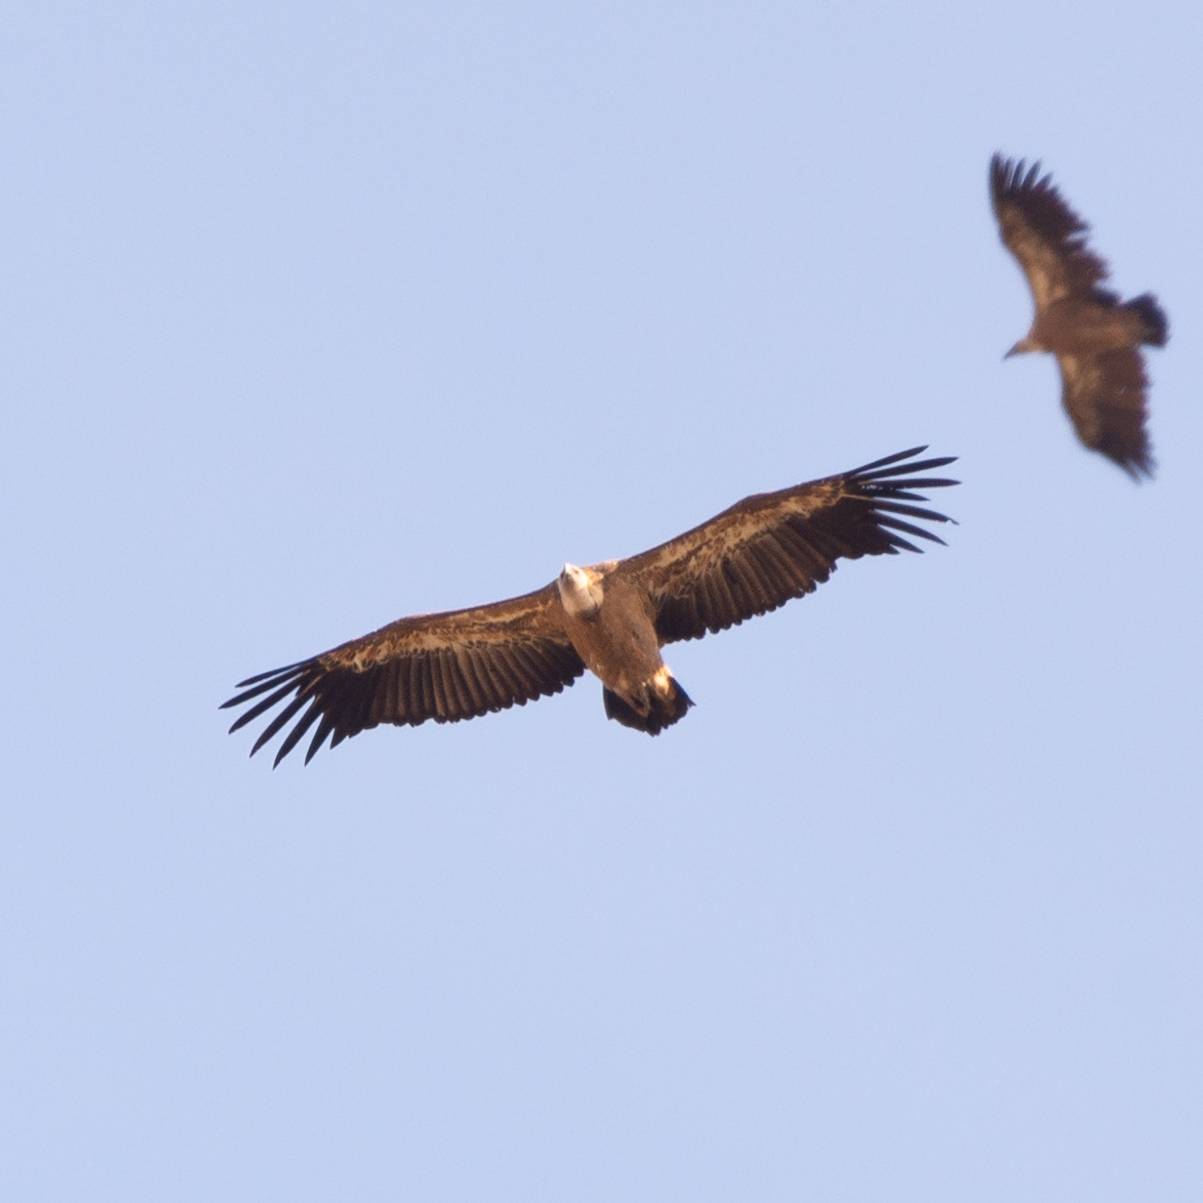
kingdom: Animalia
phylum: Chordata
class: Aves
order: Accipitriformes
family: Accipitridae
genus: Gyps
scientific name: Gyps fulvus
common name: Griffon vulture
